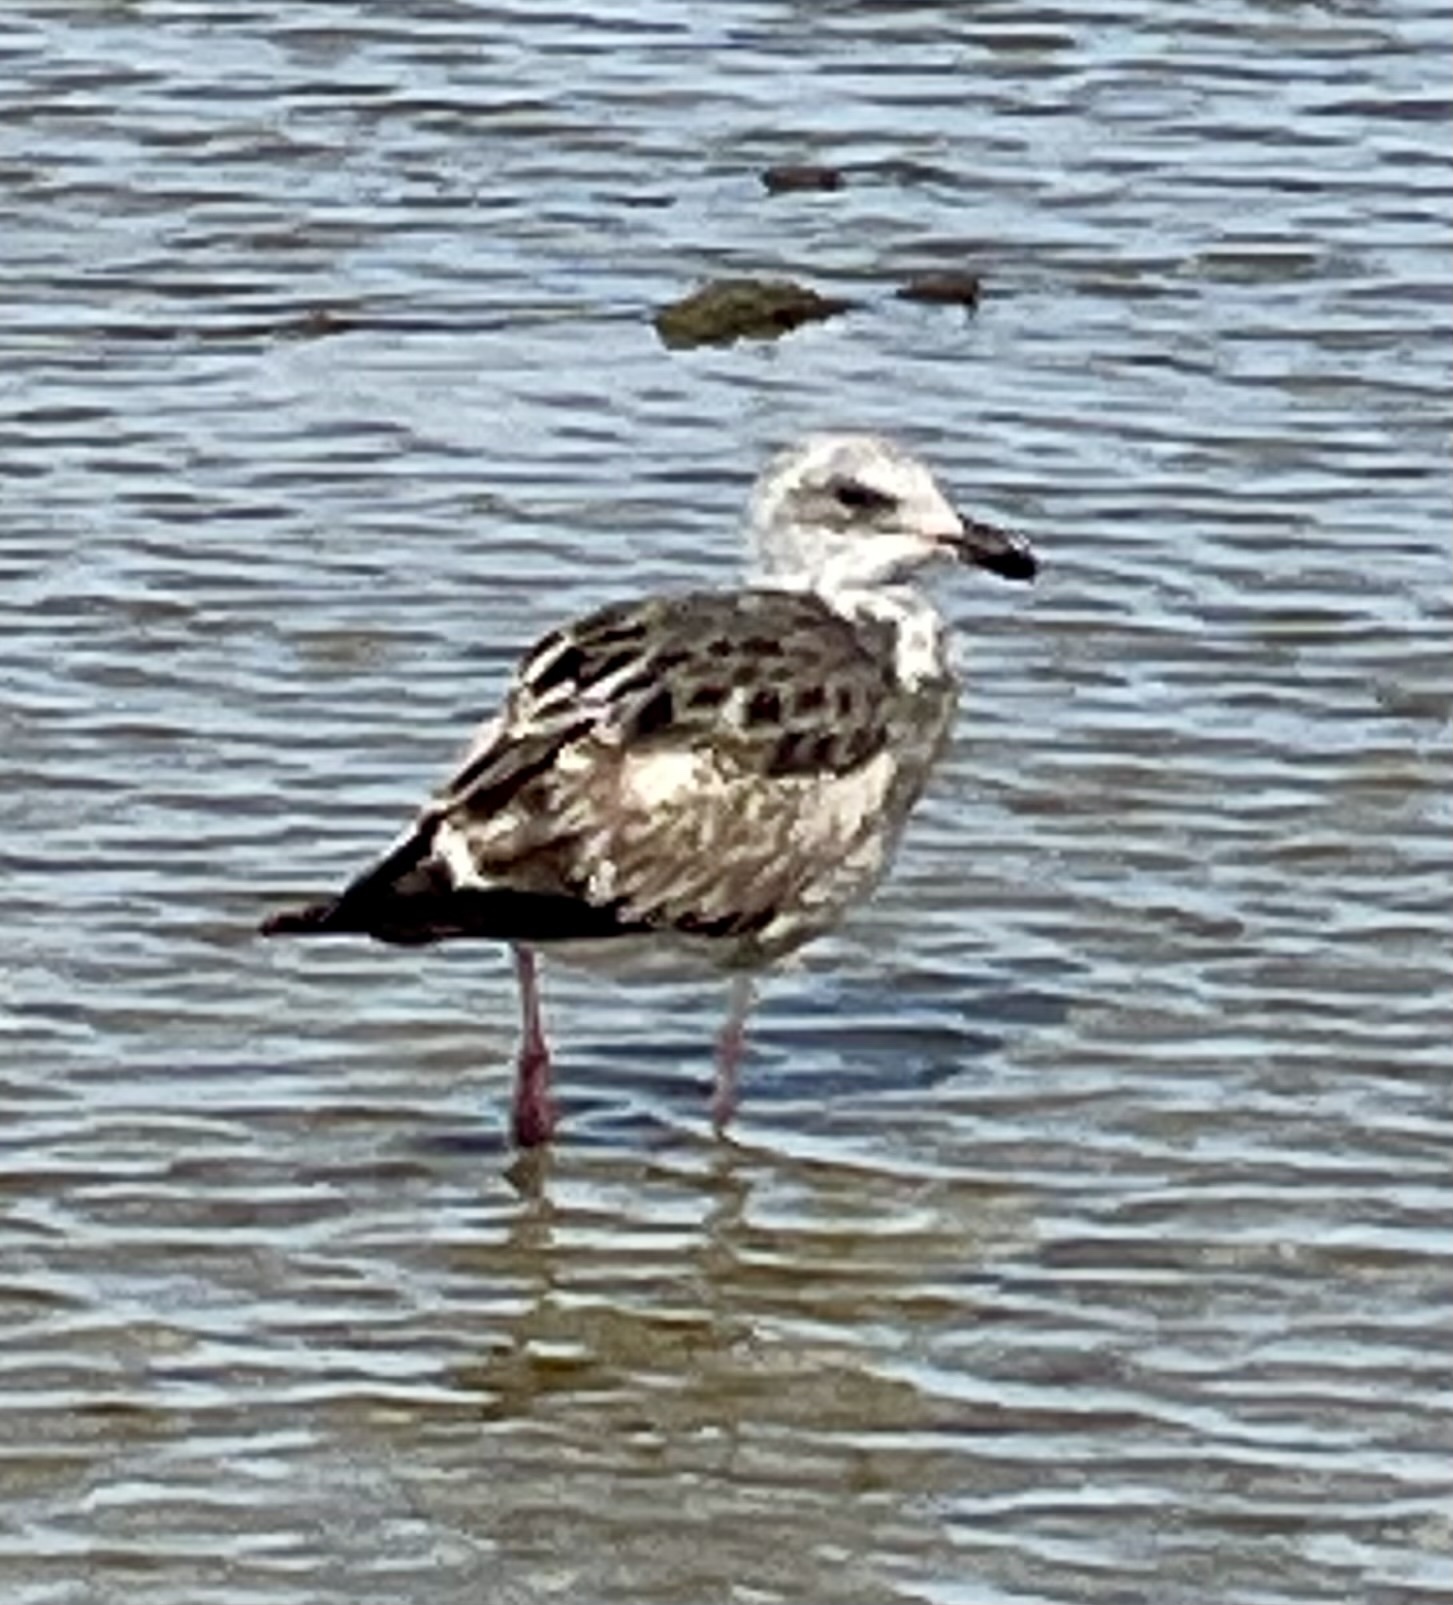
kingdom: Animalia
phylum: Chordata
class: Aves
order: Charadriiformes
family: Laridae
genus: Larus
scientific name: Larus occidentalis
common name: Western gull
